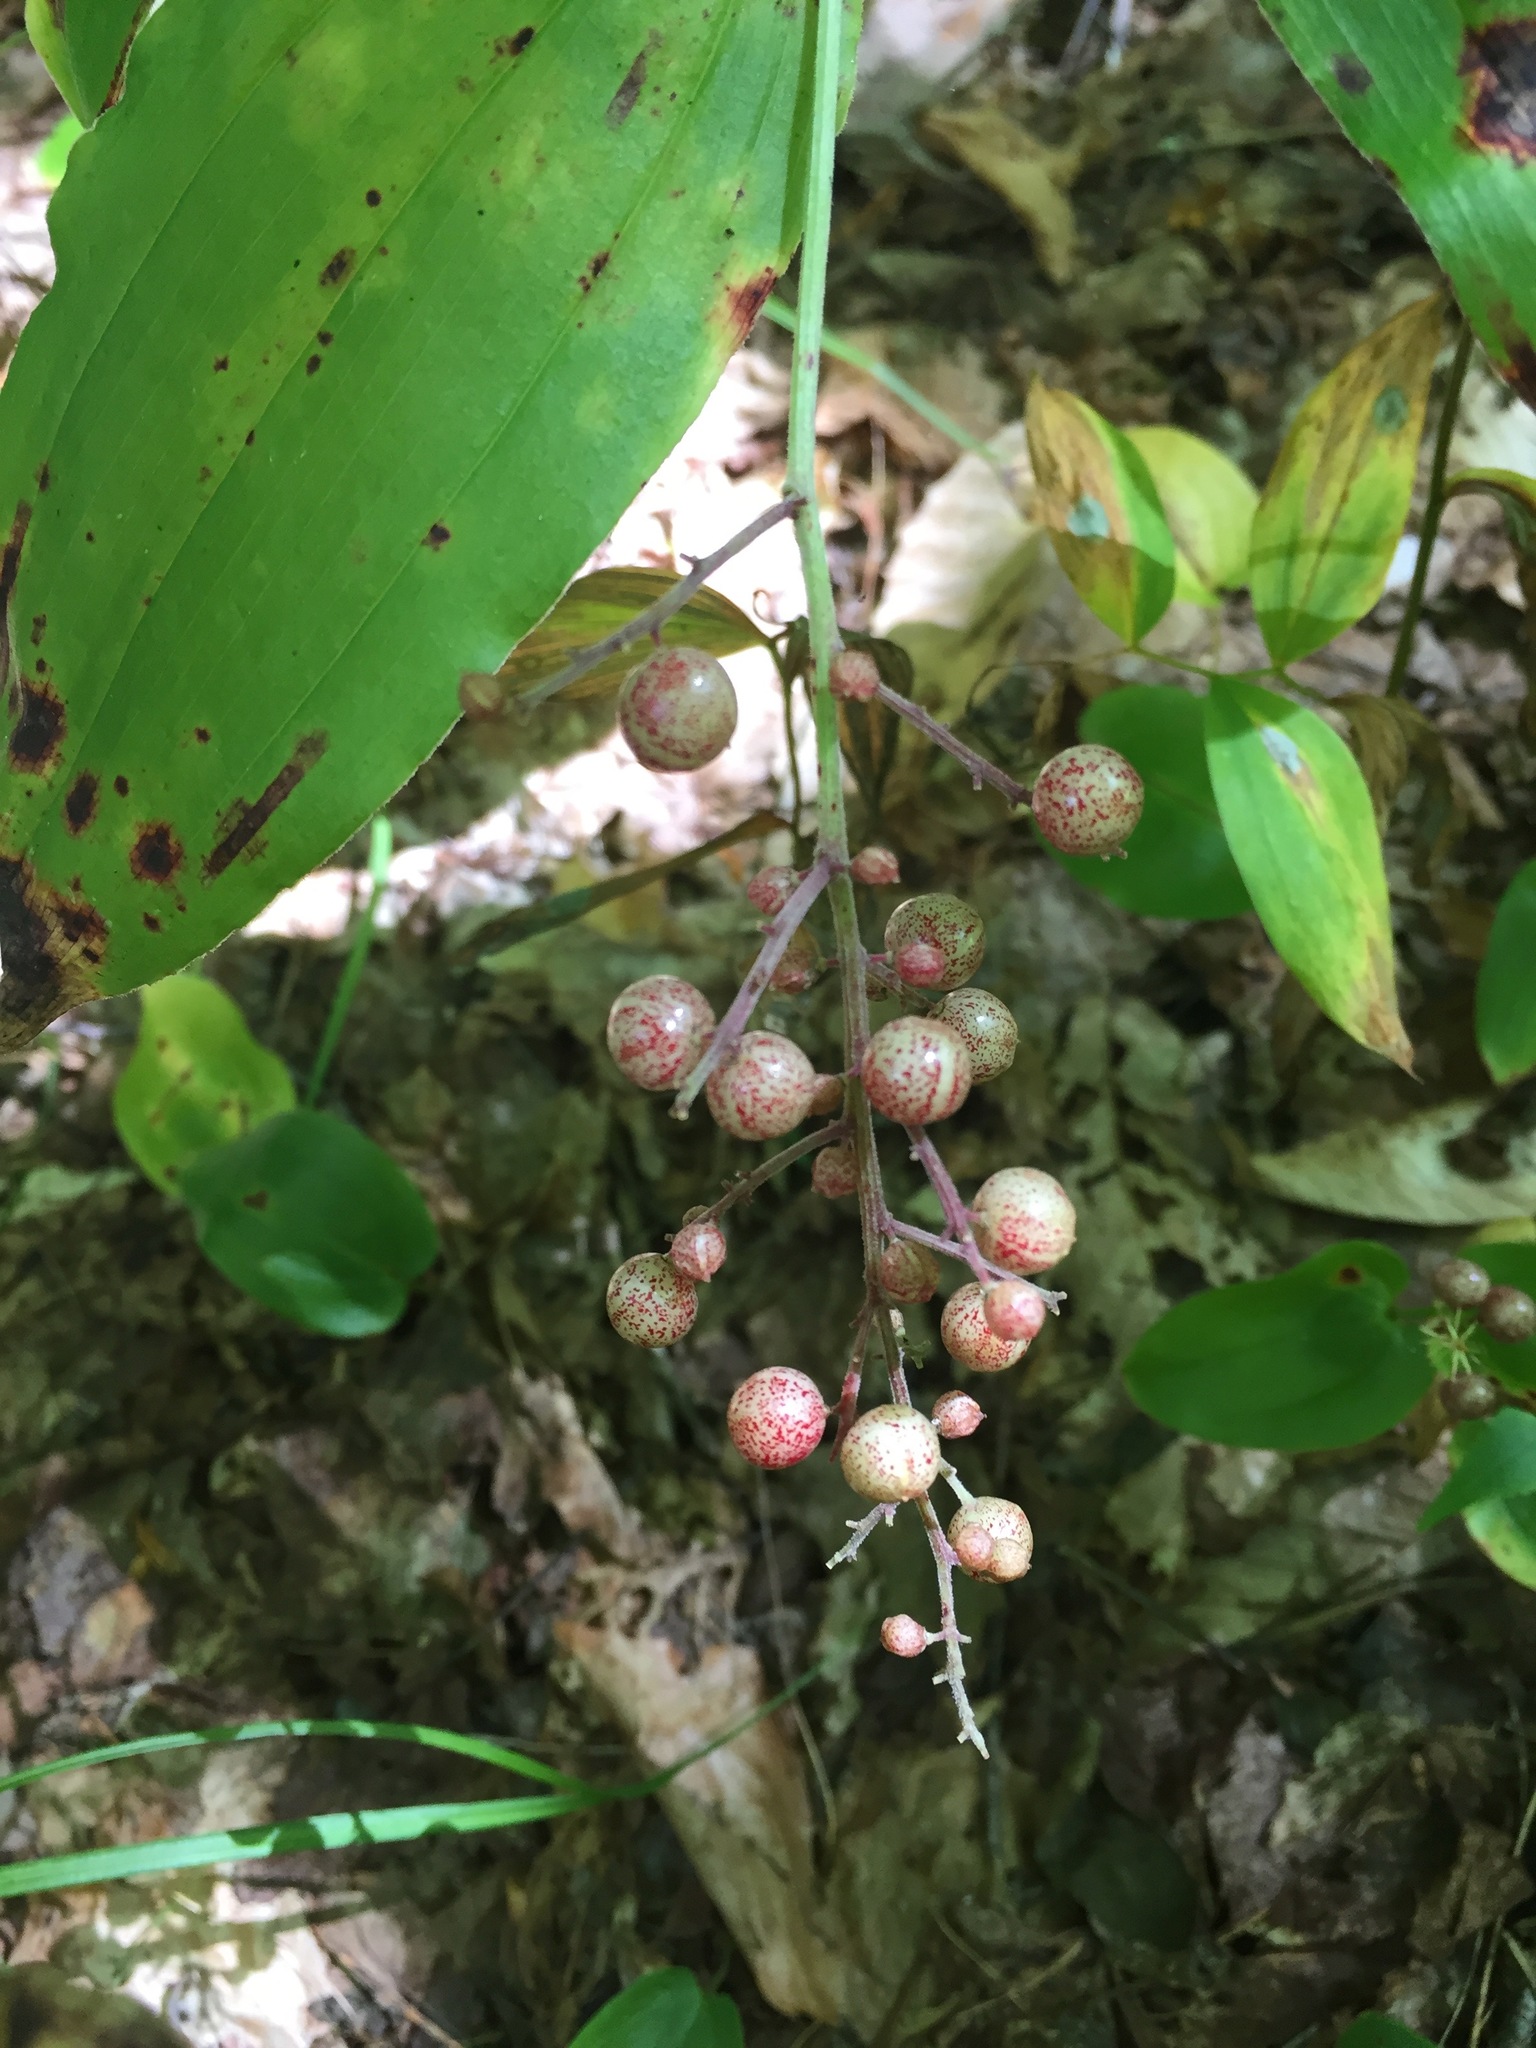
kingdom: Plantae
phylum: Tracheophyta
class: Liliopsida
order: Asparagales
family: Asparagaceae
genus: Maianthemum
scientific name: Maianthemum racemosum
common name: False spikenard
